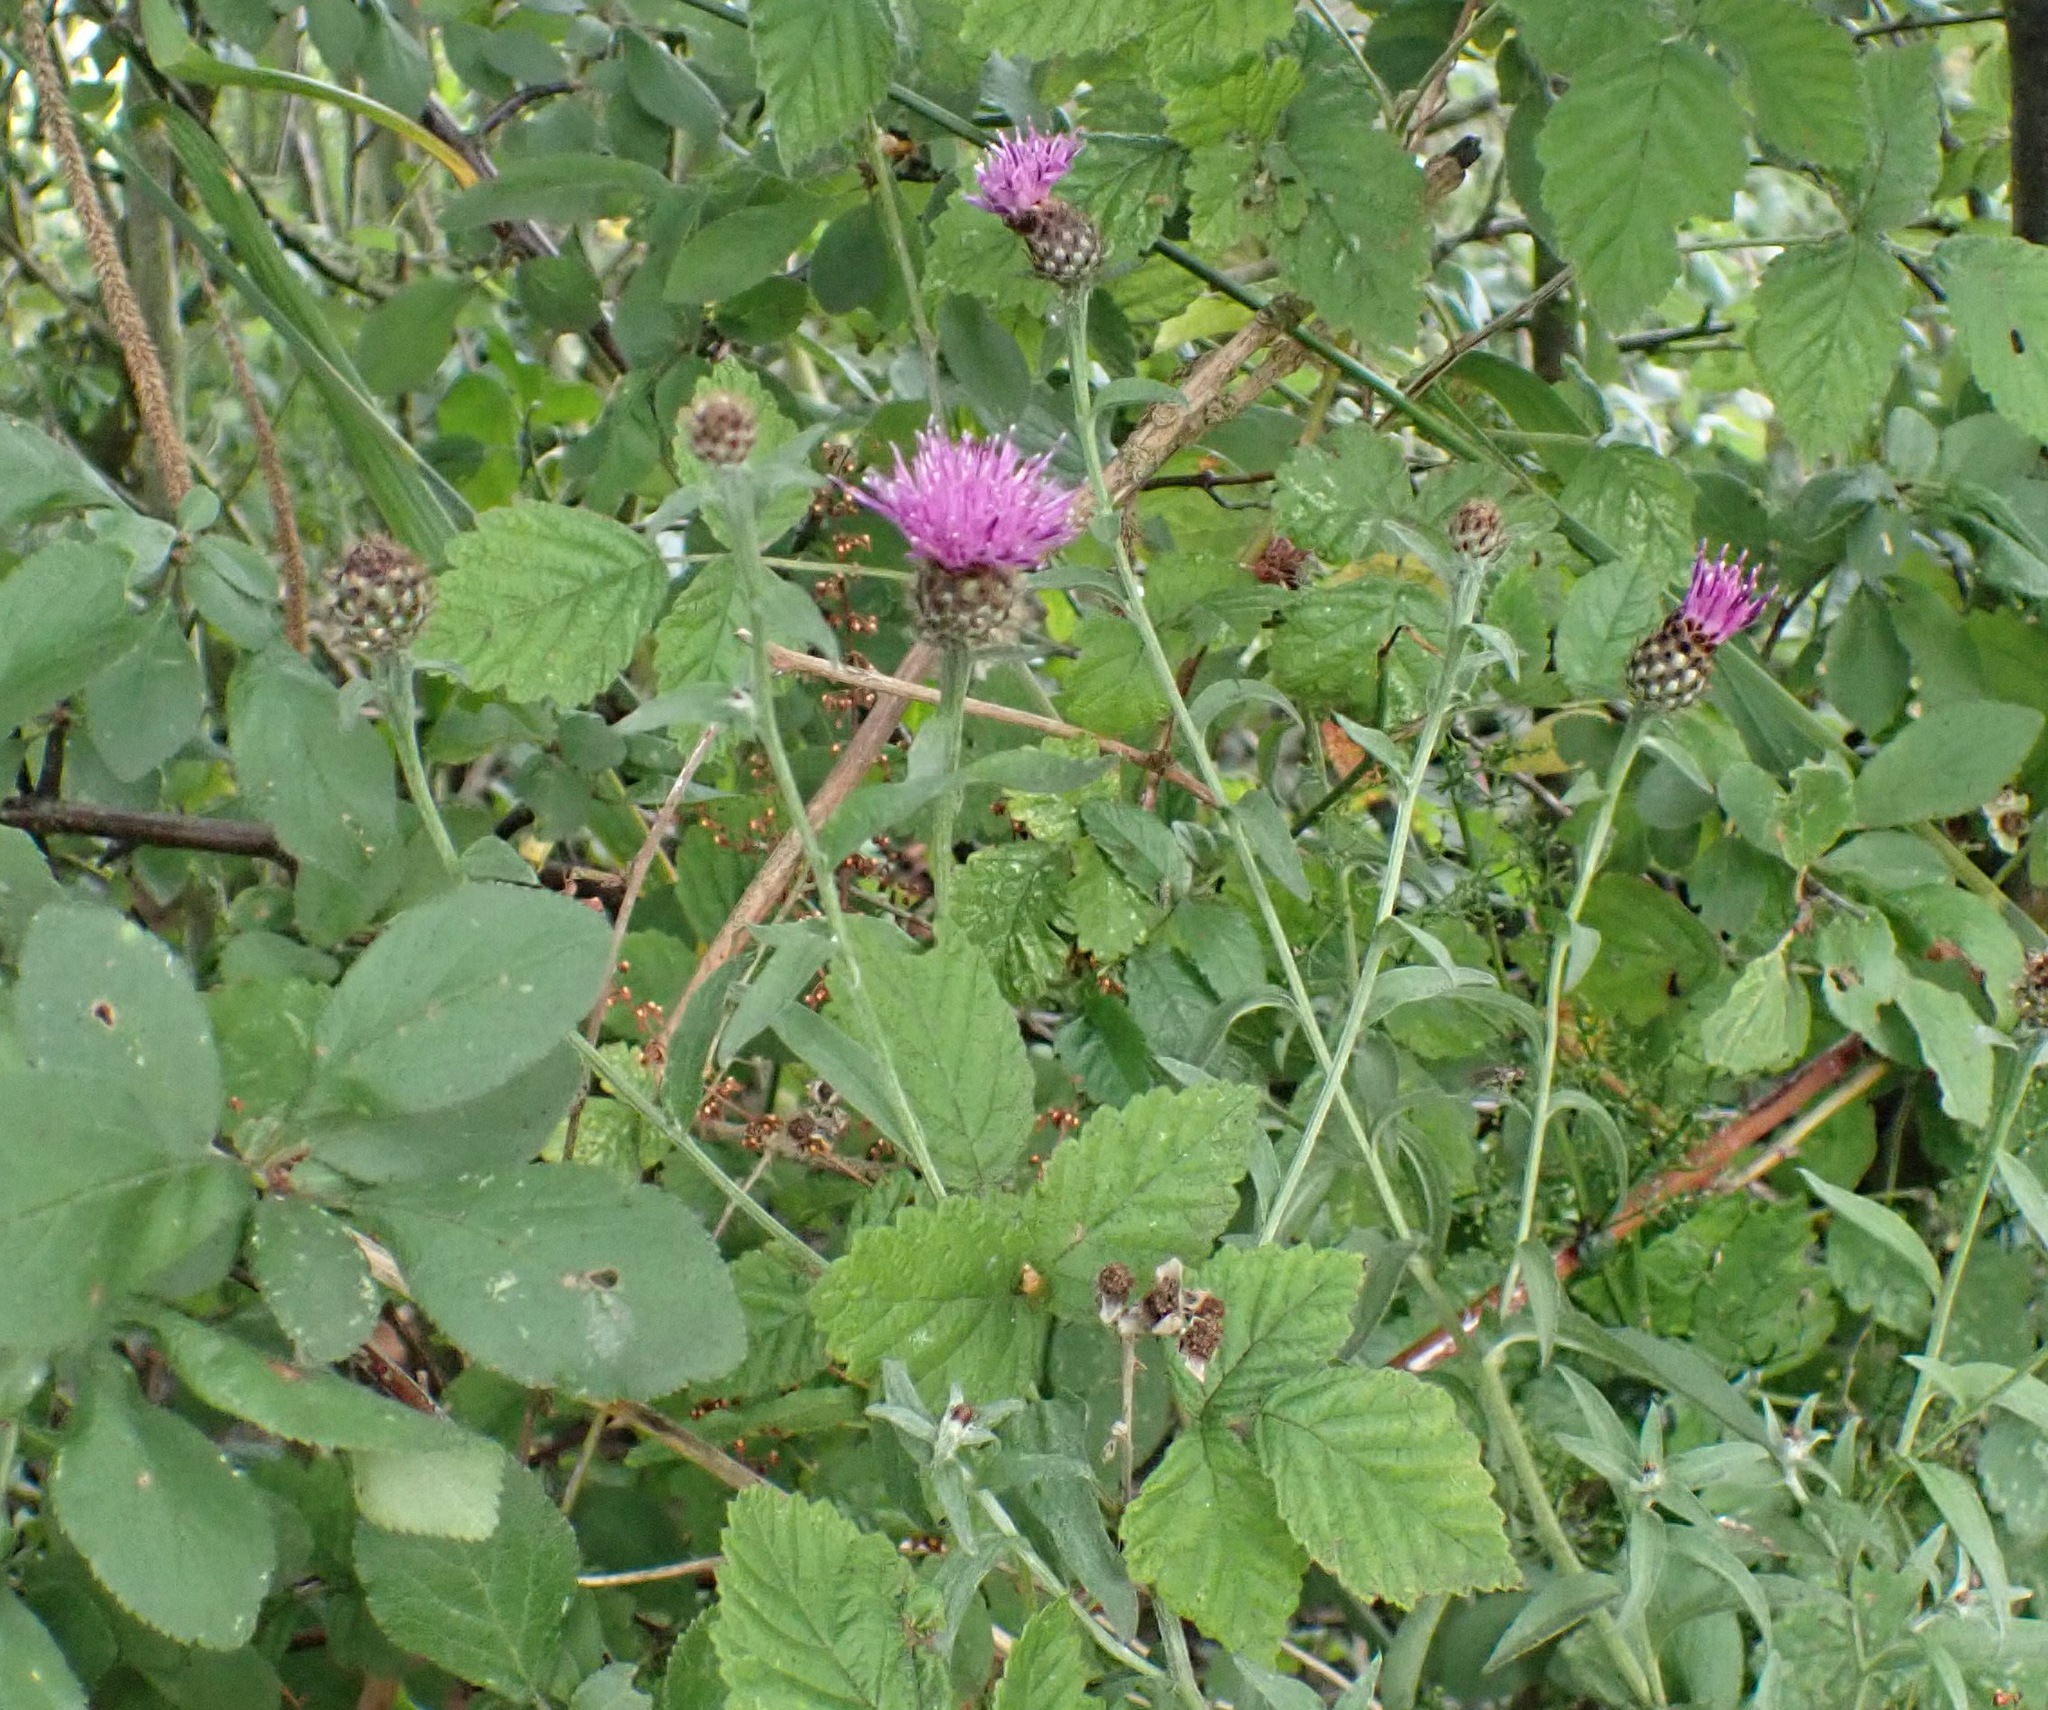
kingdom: Plantae
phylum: Tracheophyta
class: Magnoliopsida
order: Asterales
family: Asteraceae
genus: Centaurea
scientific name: Centaurea nigra
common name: Lesser knapweed
